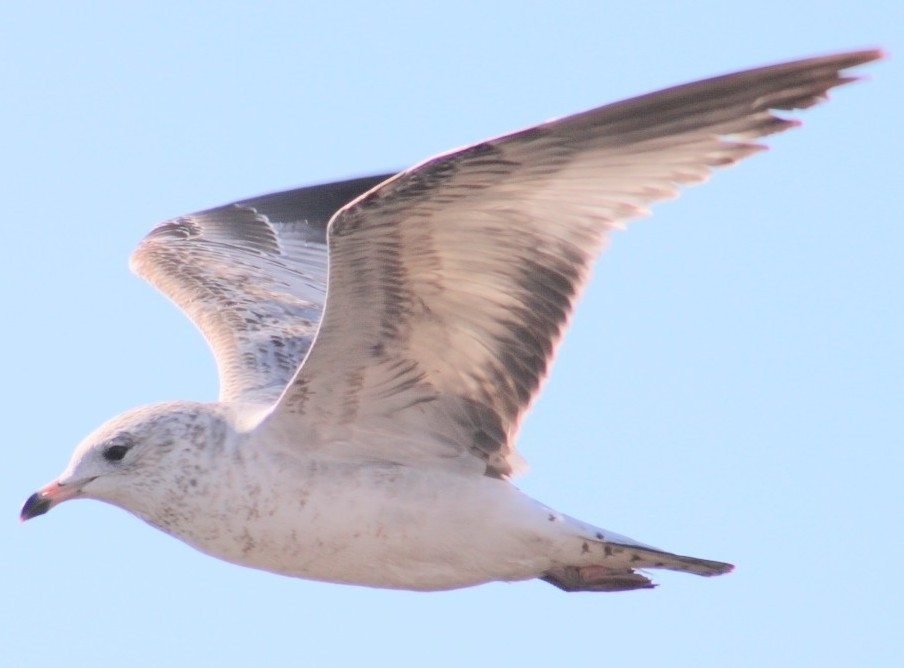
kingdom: Animalia
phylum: Chordata
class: Aves
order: Charadriiformes
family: Laridae
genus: Larus
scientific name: Larus delawarensis
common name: Ring-billed gull
